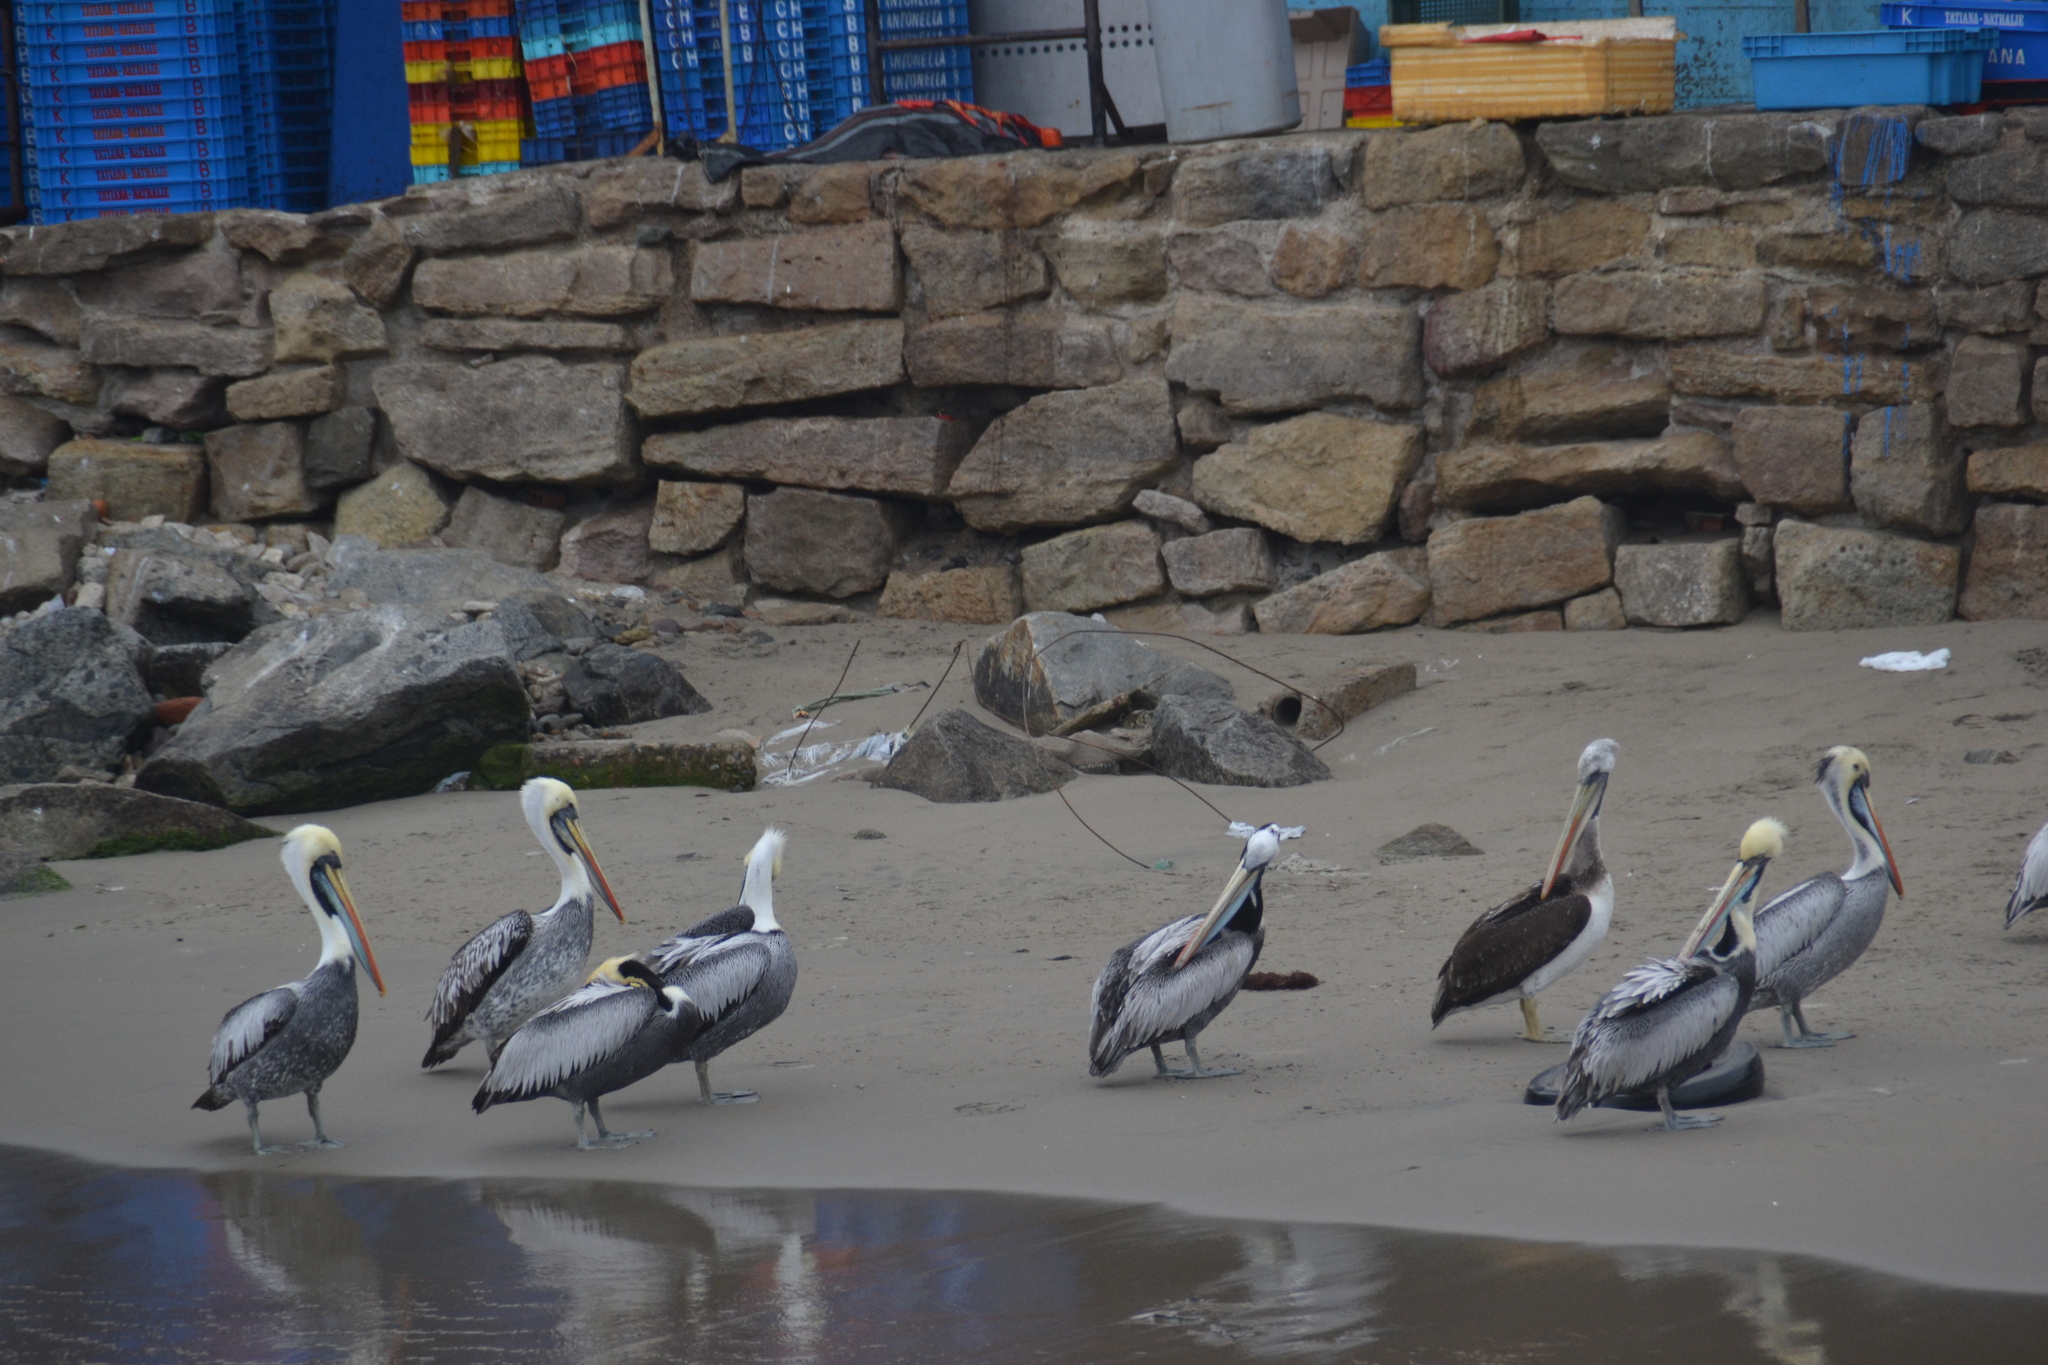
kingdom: Animalia
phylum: Chordata
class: Aves
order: Pelecaniformes
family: Pelecanidae
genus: Pelecanus
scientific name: Pelecanus thagus
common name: Peruvian pelican
